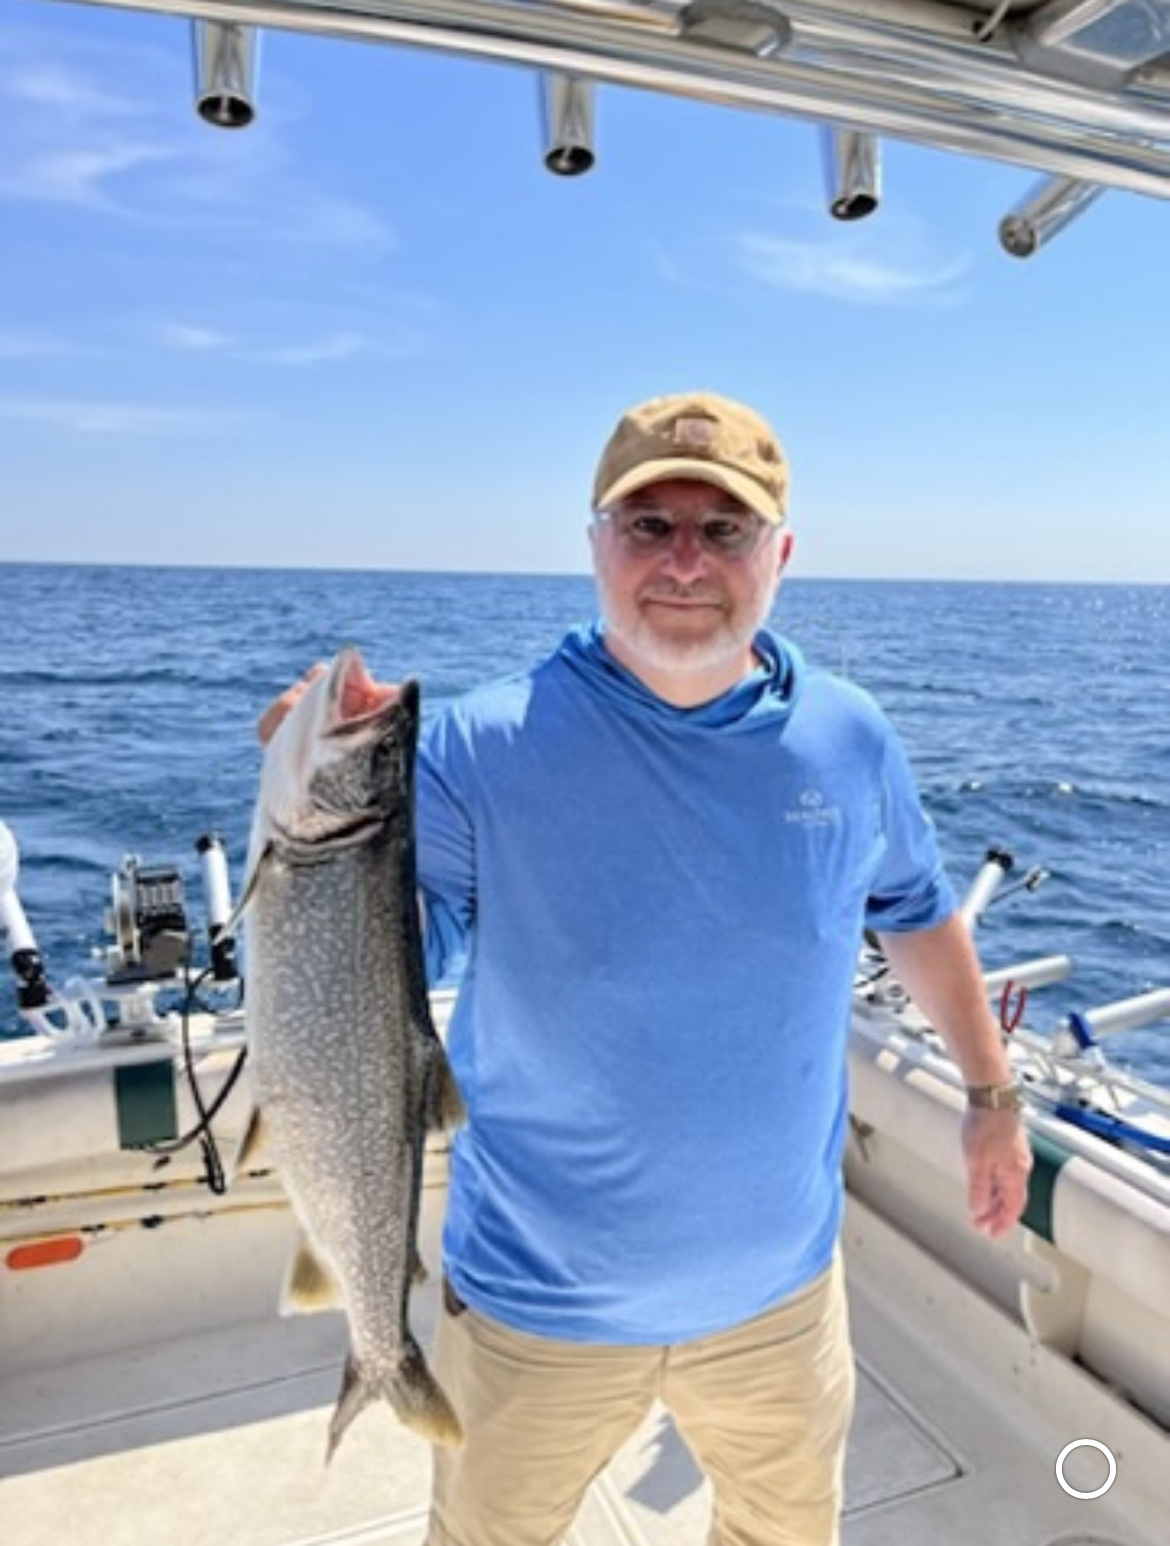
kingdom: Animalia
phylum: Chordata
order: Salmoniformes
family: Salmonidae
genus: Salvelinus
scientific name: Salvelinus namaycush
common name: American lake charr
